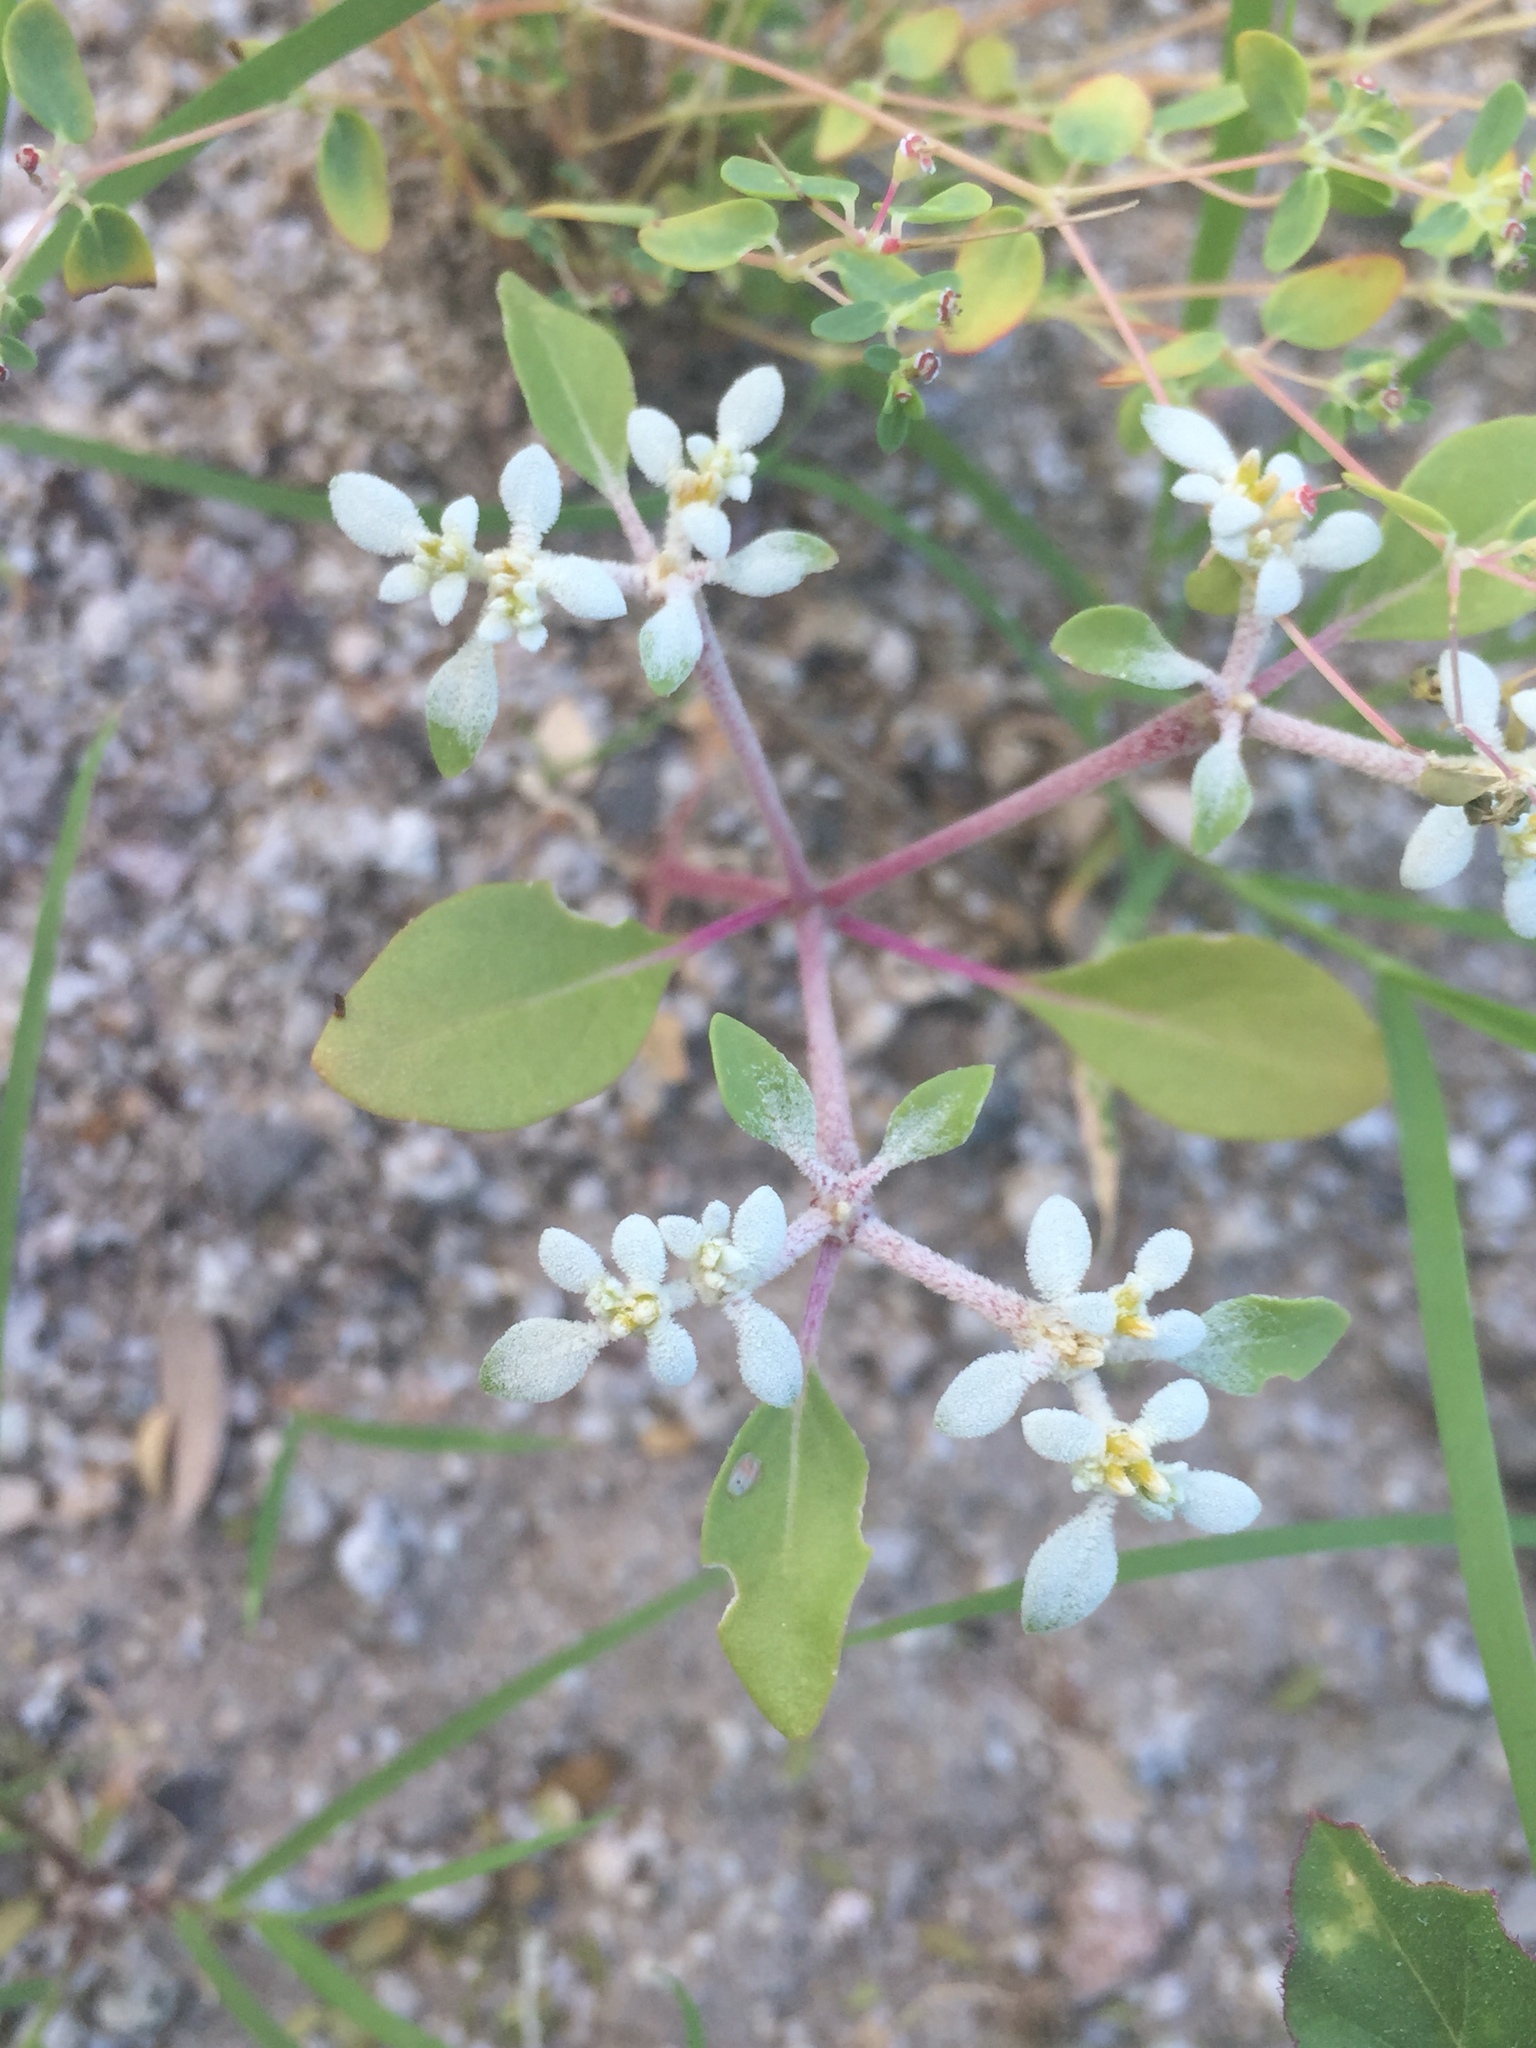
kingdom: Plantae
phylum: Tracheophyta
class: Magnoliopsida
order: Caryophyllales
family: Amaranthaceae
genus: Tidestromia
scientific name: Tidestromia lanuginosa
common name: Woolly tidestromia
